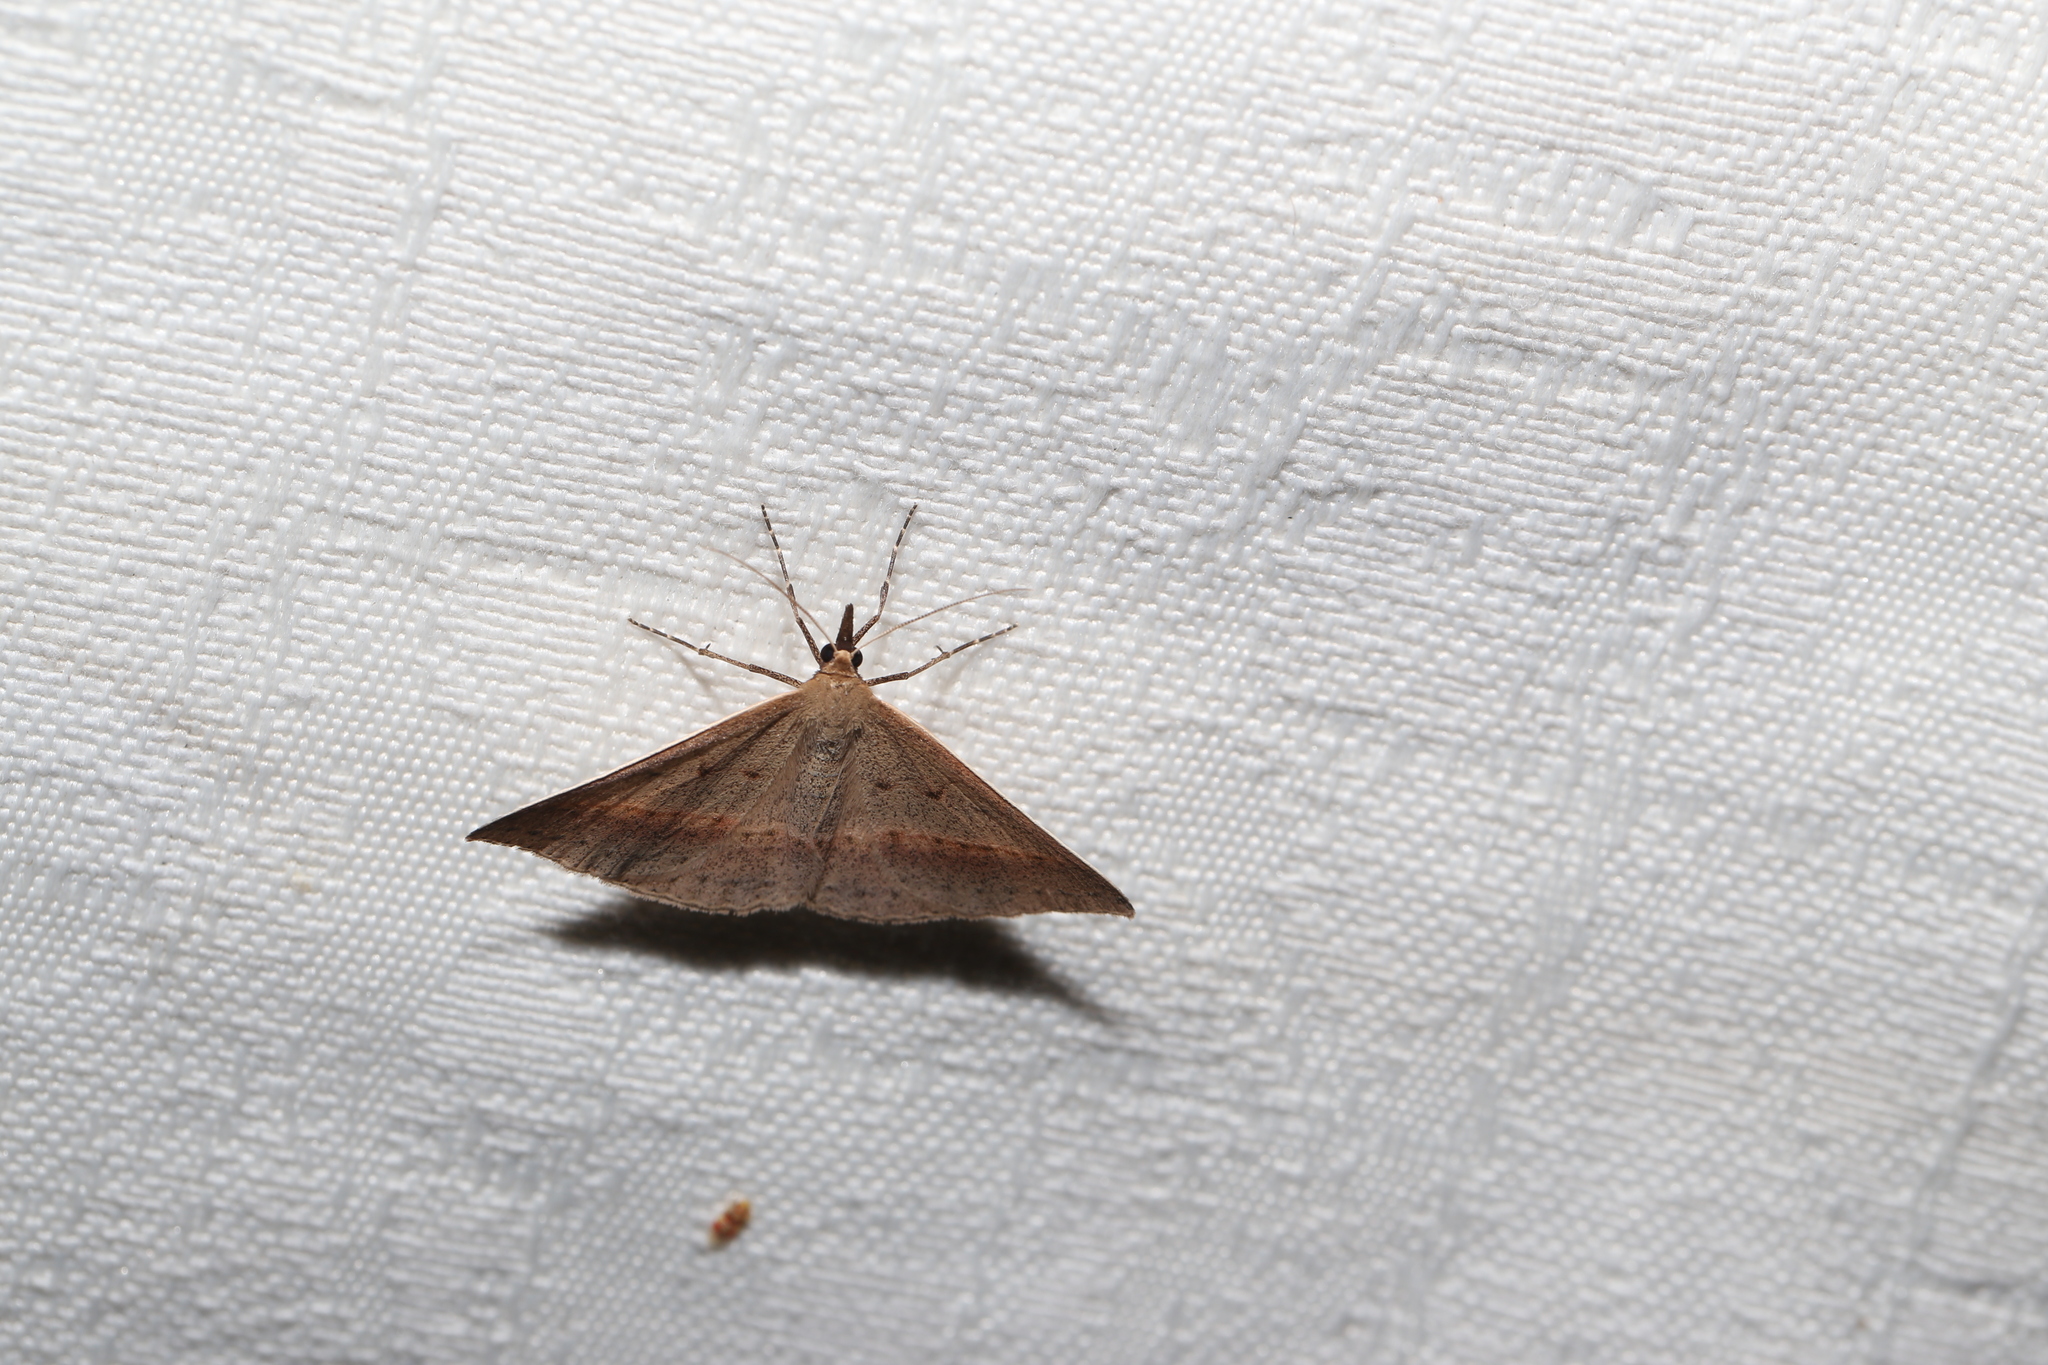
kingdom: Animalia
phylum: Arthropoda
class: Insecta
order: Lepidoptera
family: Geometridae
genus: Epidesmia
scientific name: Epidesmia tryxaria
